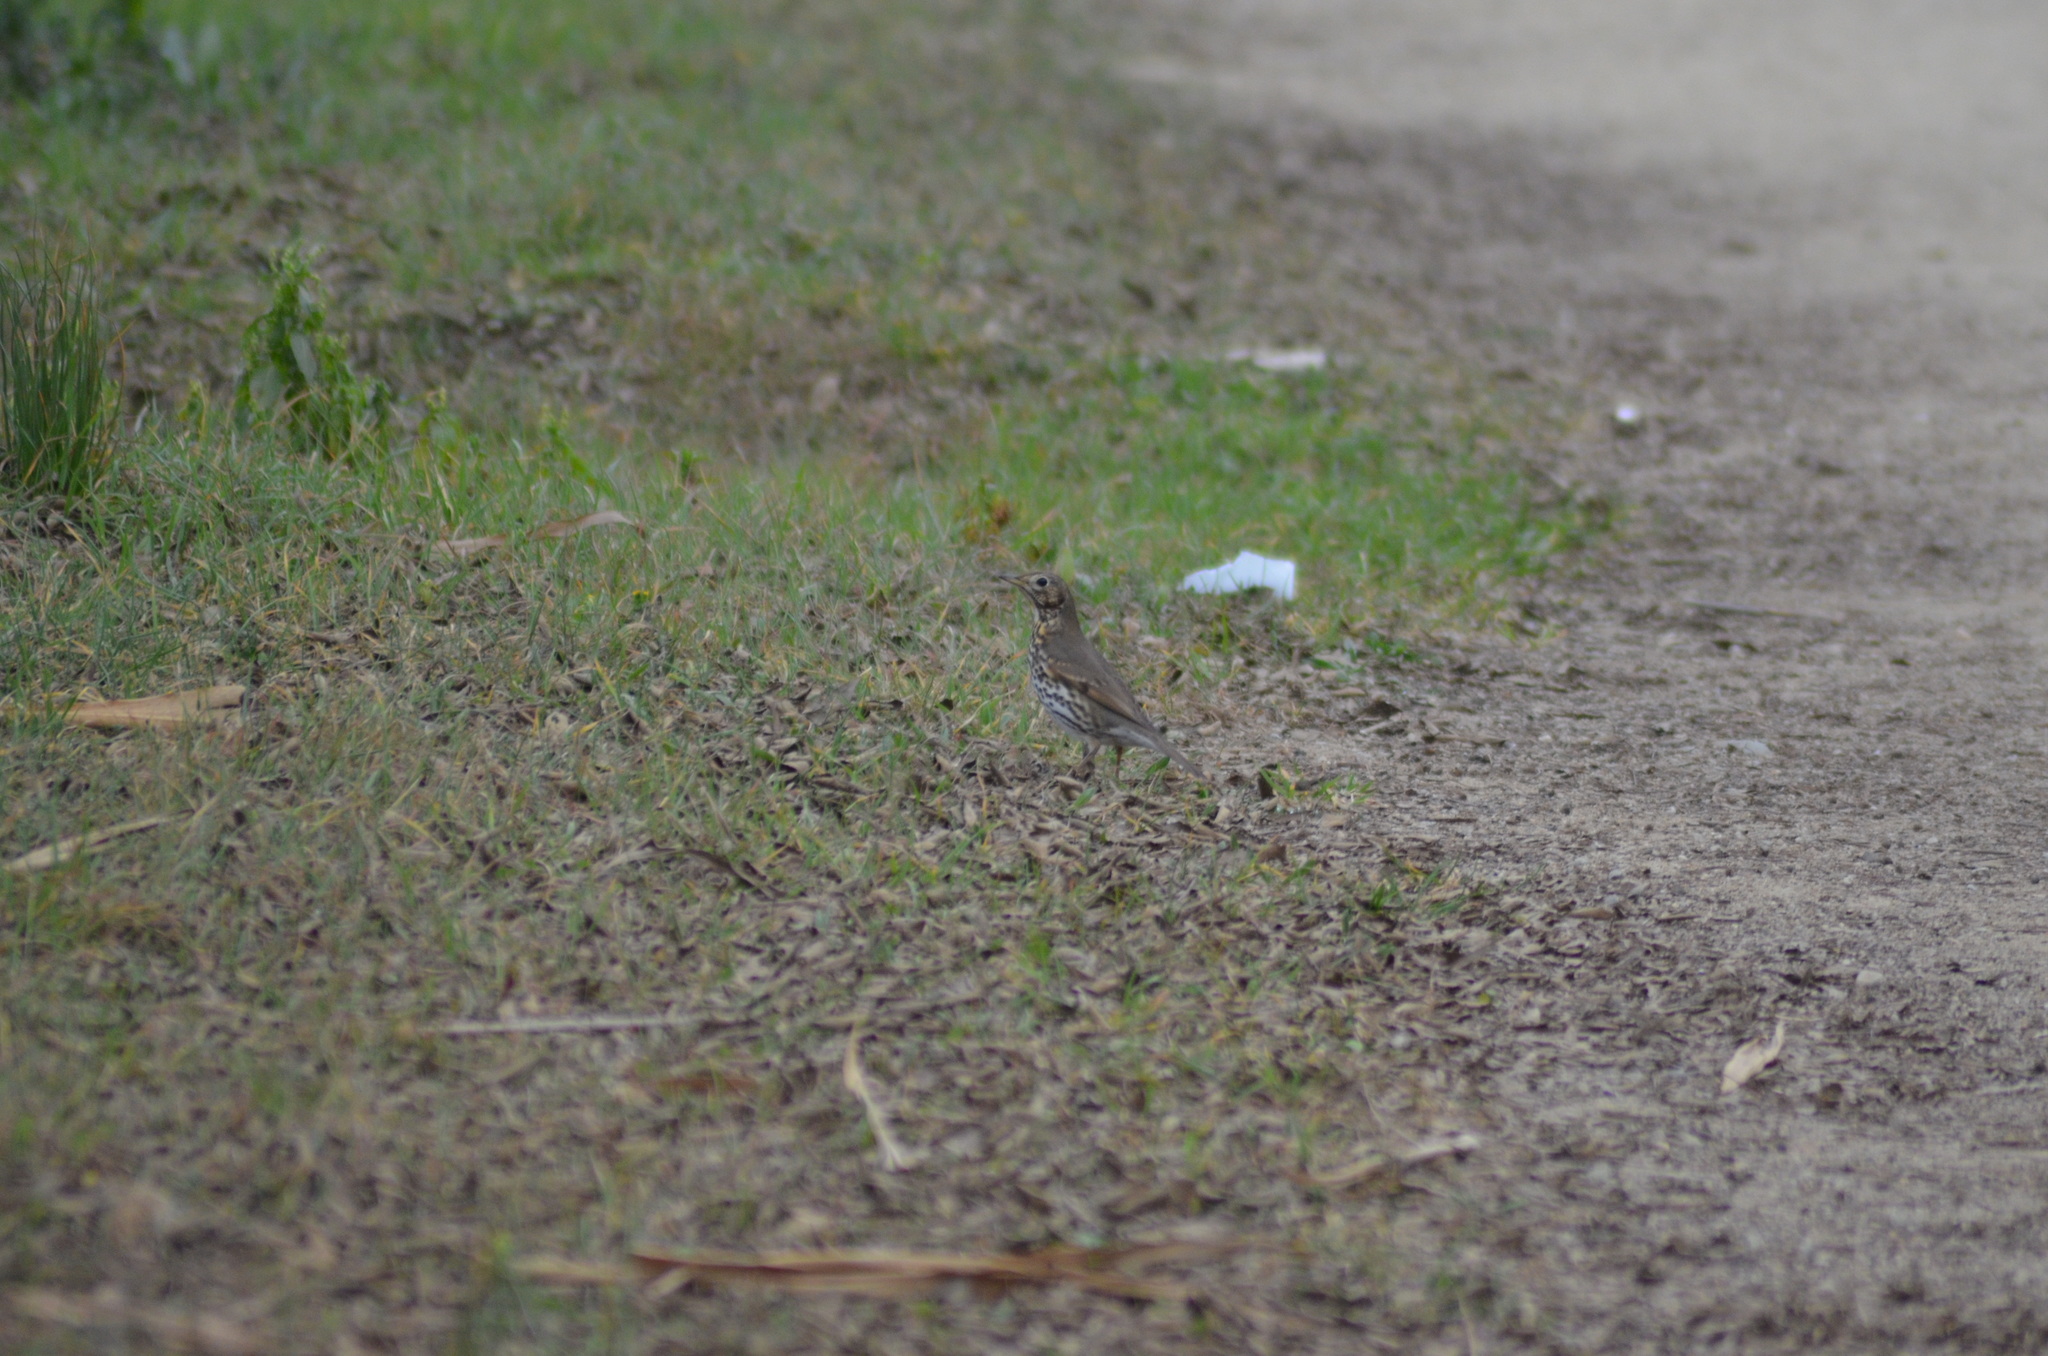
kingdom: Animalia
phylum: Chordata
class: Aves
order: Passeriformes
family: Turdidae
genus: Turdus
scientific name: Turdus philomelos
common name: Song thrush
